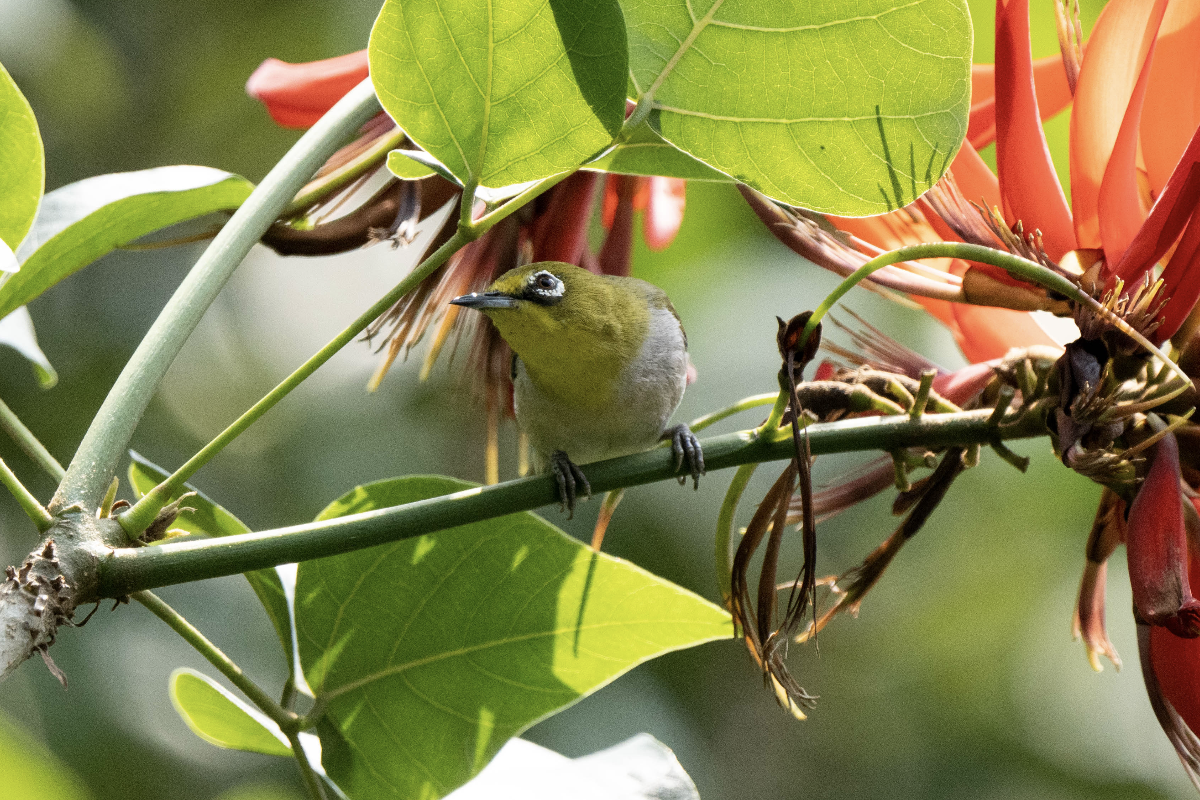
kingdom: Animalia
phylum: Chordata
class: Aves
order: Passeriformes
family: Zosteropidae
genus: Zosterops
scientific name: Zosterops simplex
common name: Swinhoe's white-eye
